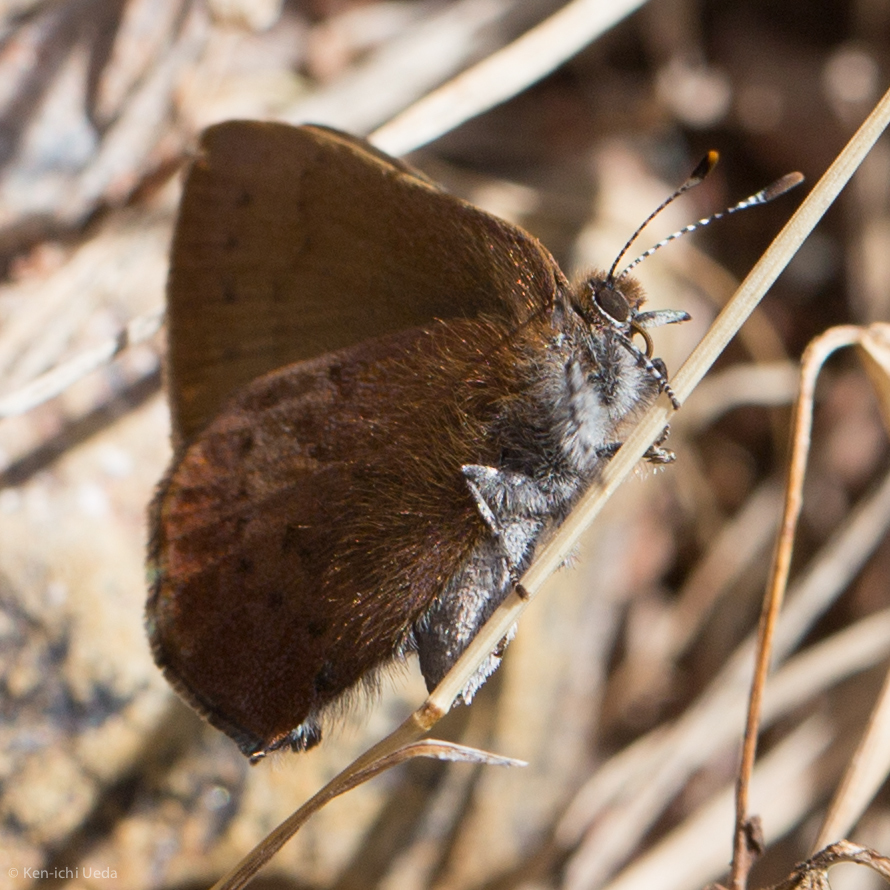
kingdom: Animalia
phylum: Arthropoda
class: Insecta
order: Lepidoptera
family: Lycaenidae
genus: Incisalia
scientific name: Incisalia irioides
